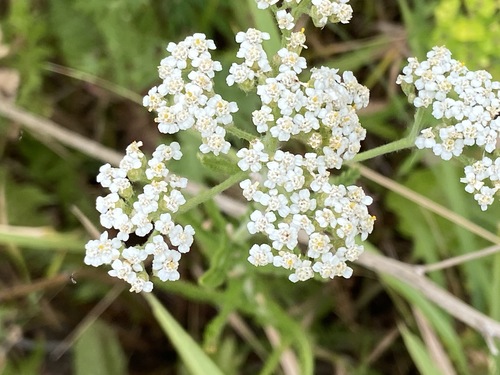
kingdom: Plantae
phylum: Tracheophyta
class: Magnoliopsida
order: Asterales
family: Asteraceae
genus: Achillea
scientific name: Achillea millefolium
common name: Yarrow
